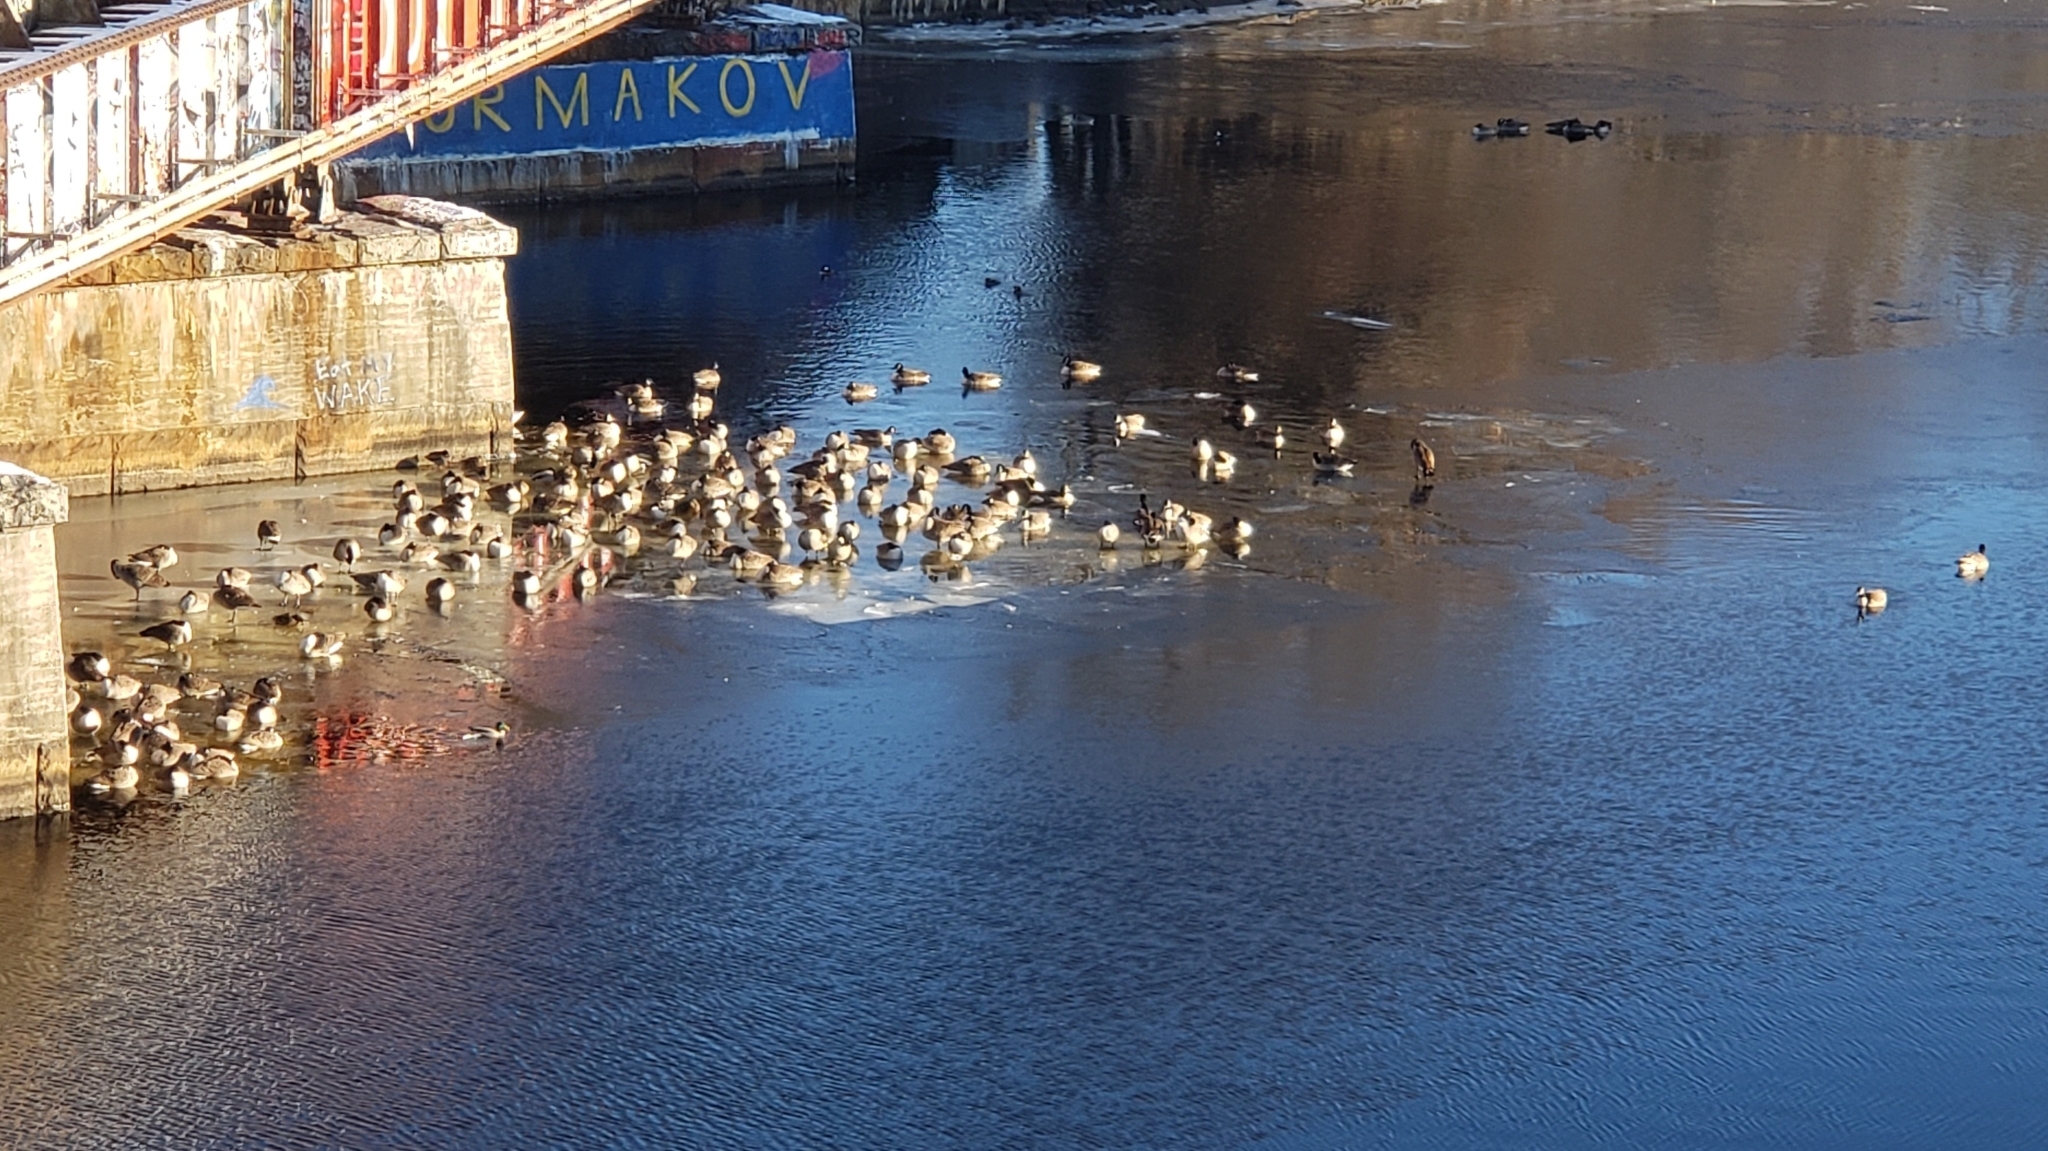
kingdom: Animalia
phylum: Chordata
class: Aves
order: Anseriformes
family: Anatidae
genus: Branta
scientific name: Branta canadensis
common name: Canada goose
